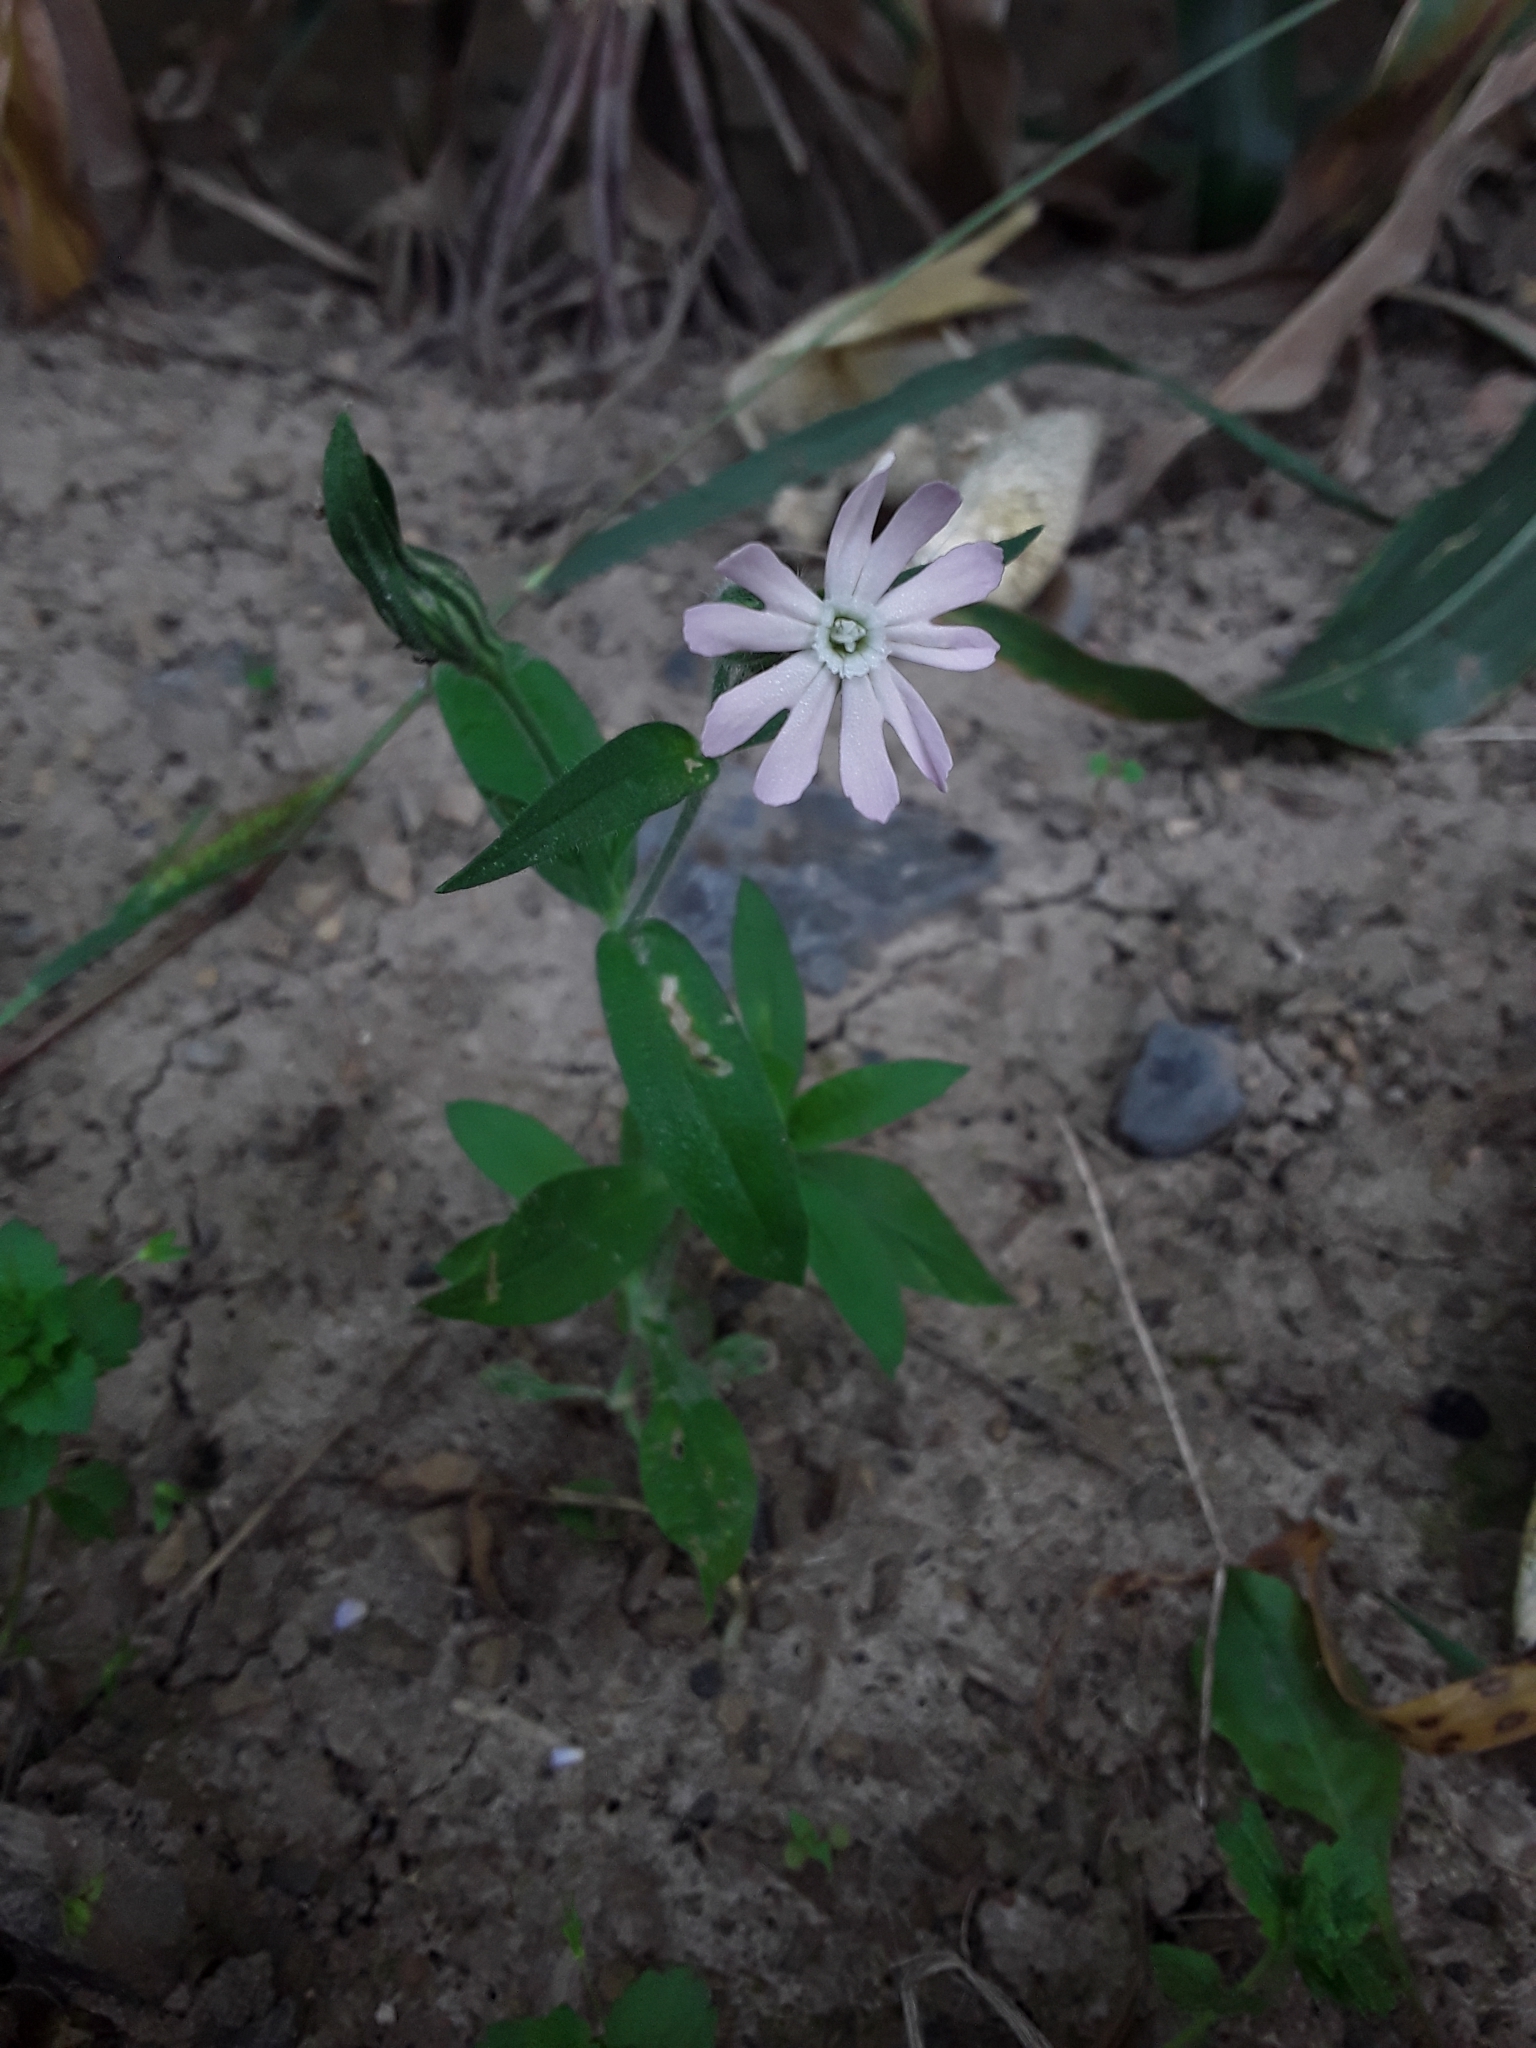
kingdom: Plantae
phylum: Tracheophyta
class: Magnoliopsida
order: Caryophyllales
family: Caryophyllaceae
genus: Silene
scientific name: Silene noctiflora
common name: Night-flowering catchfly
